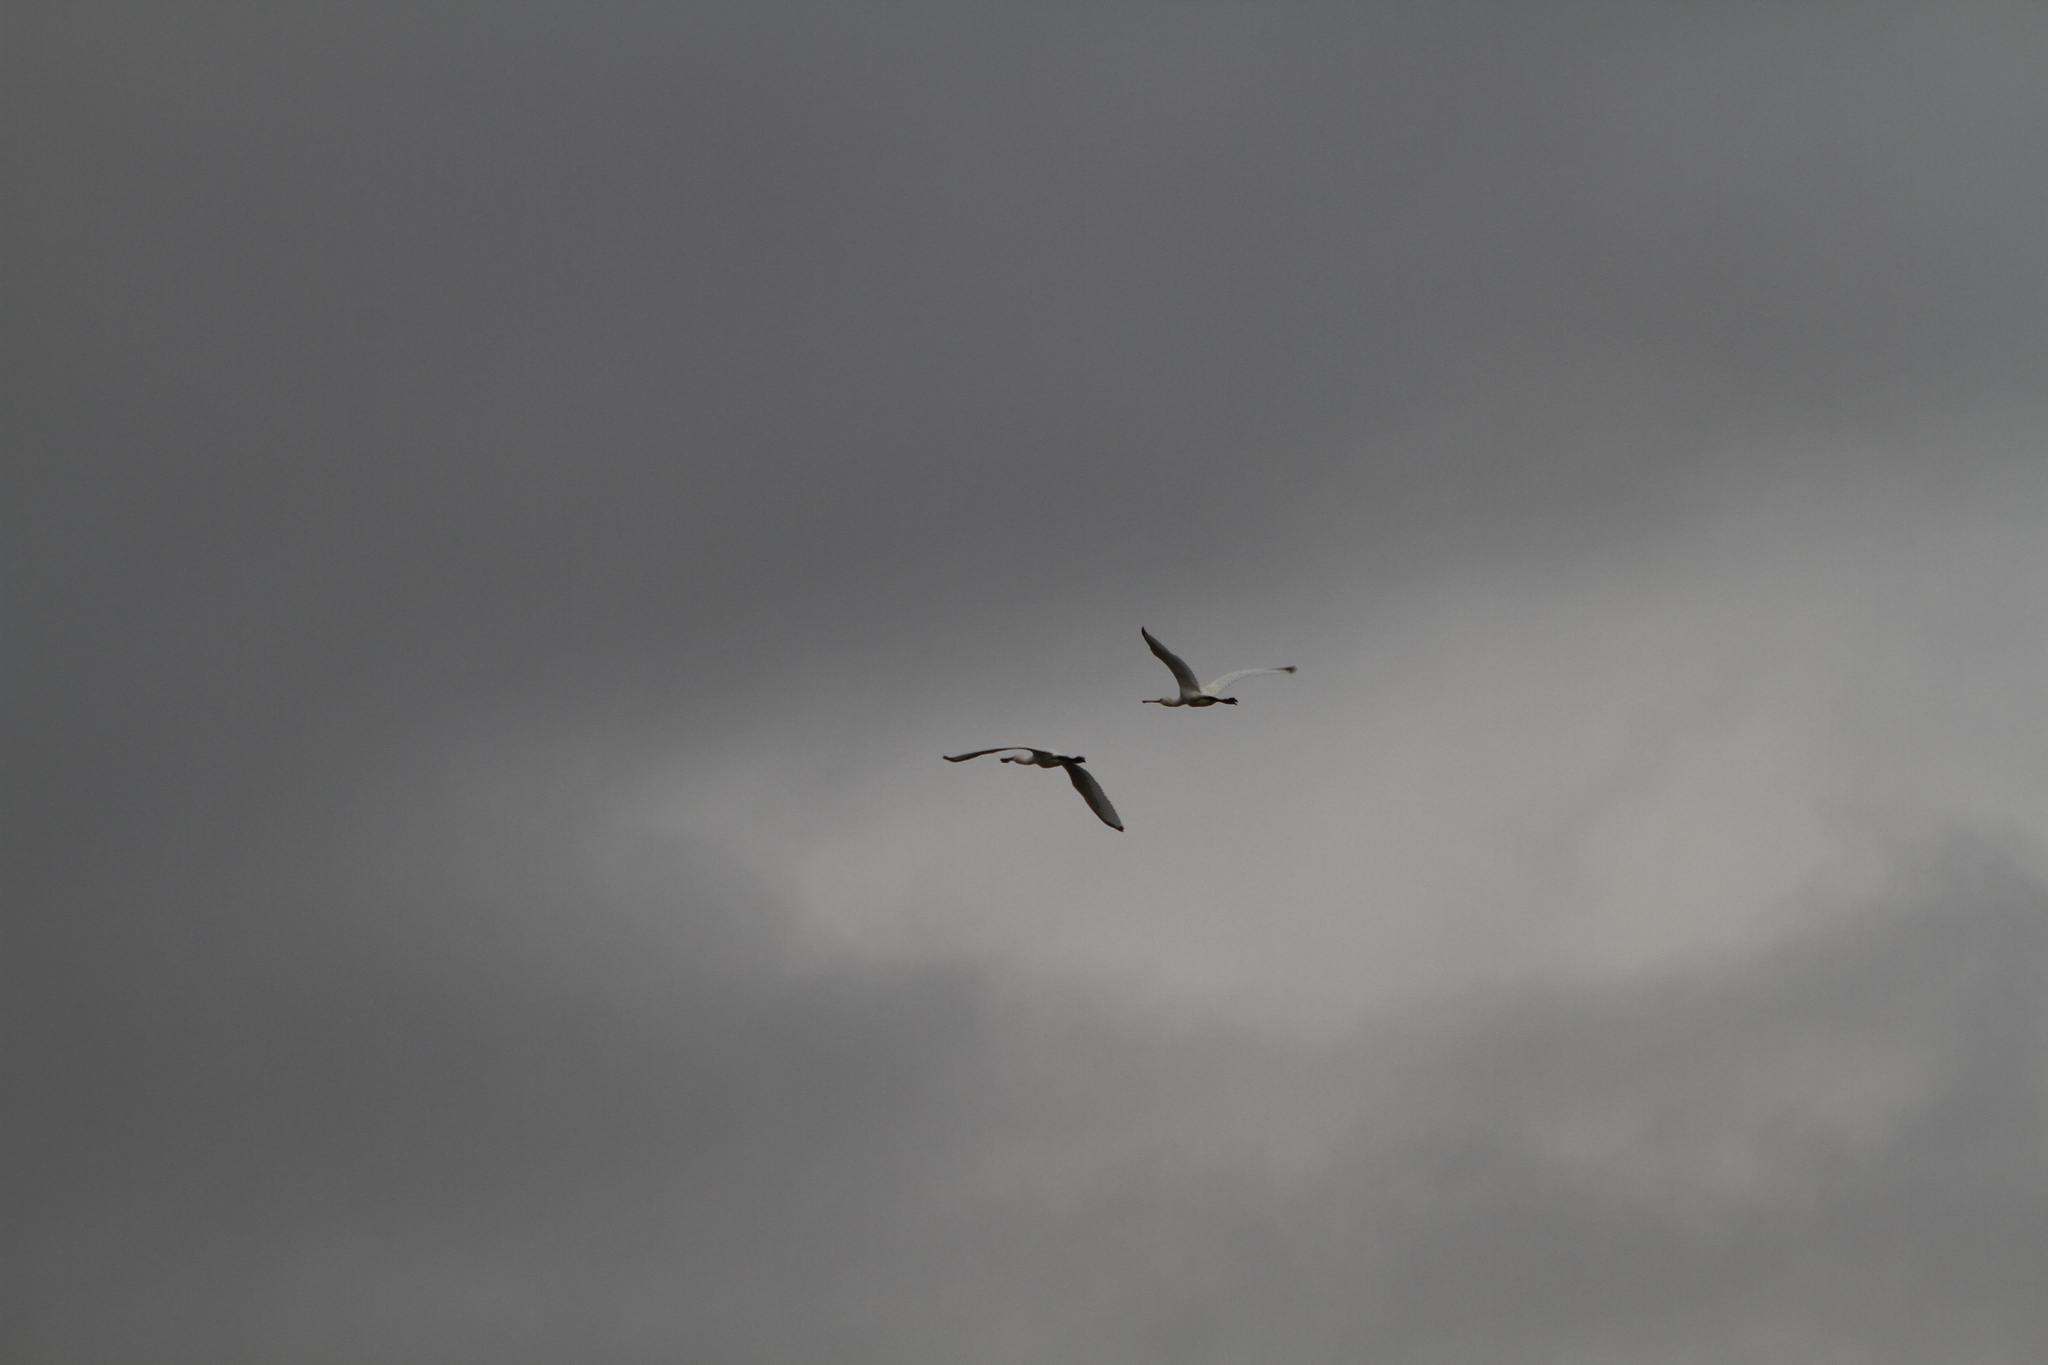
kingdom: Animalia
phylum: Chordata
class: Aves
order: Pelecaniformes
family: Threskiornithidae
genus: Platalea
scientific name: Platalea leucorodia
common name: Eurasian spoonbill
